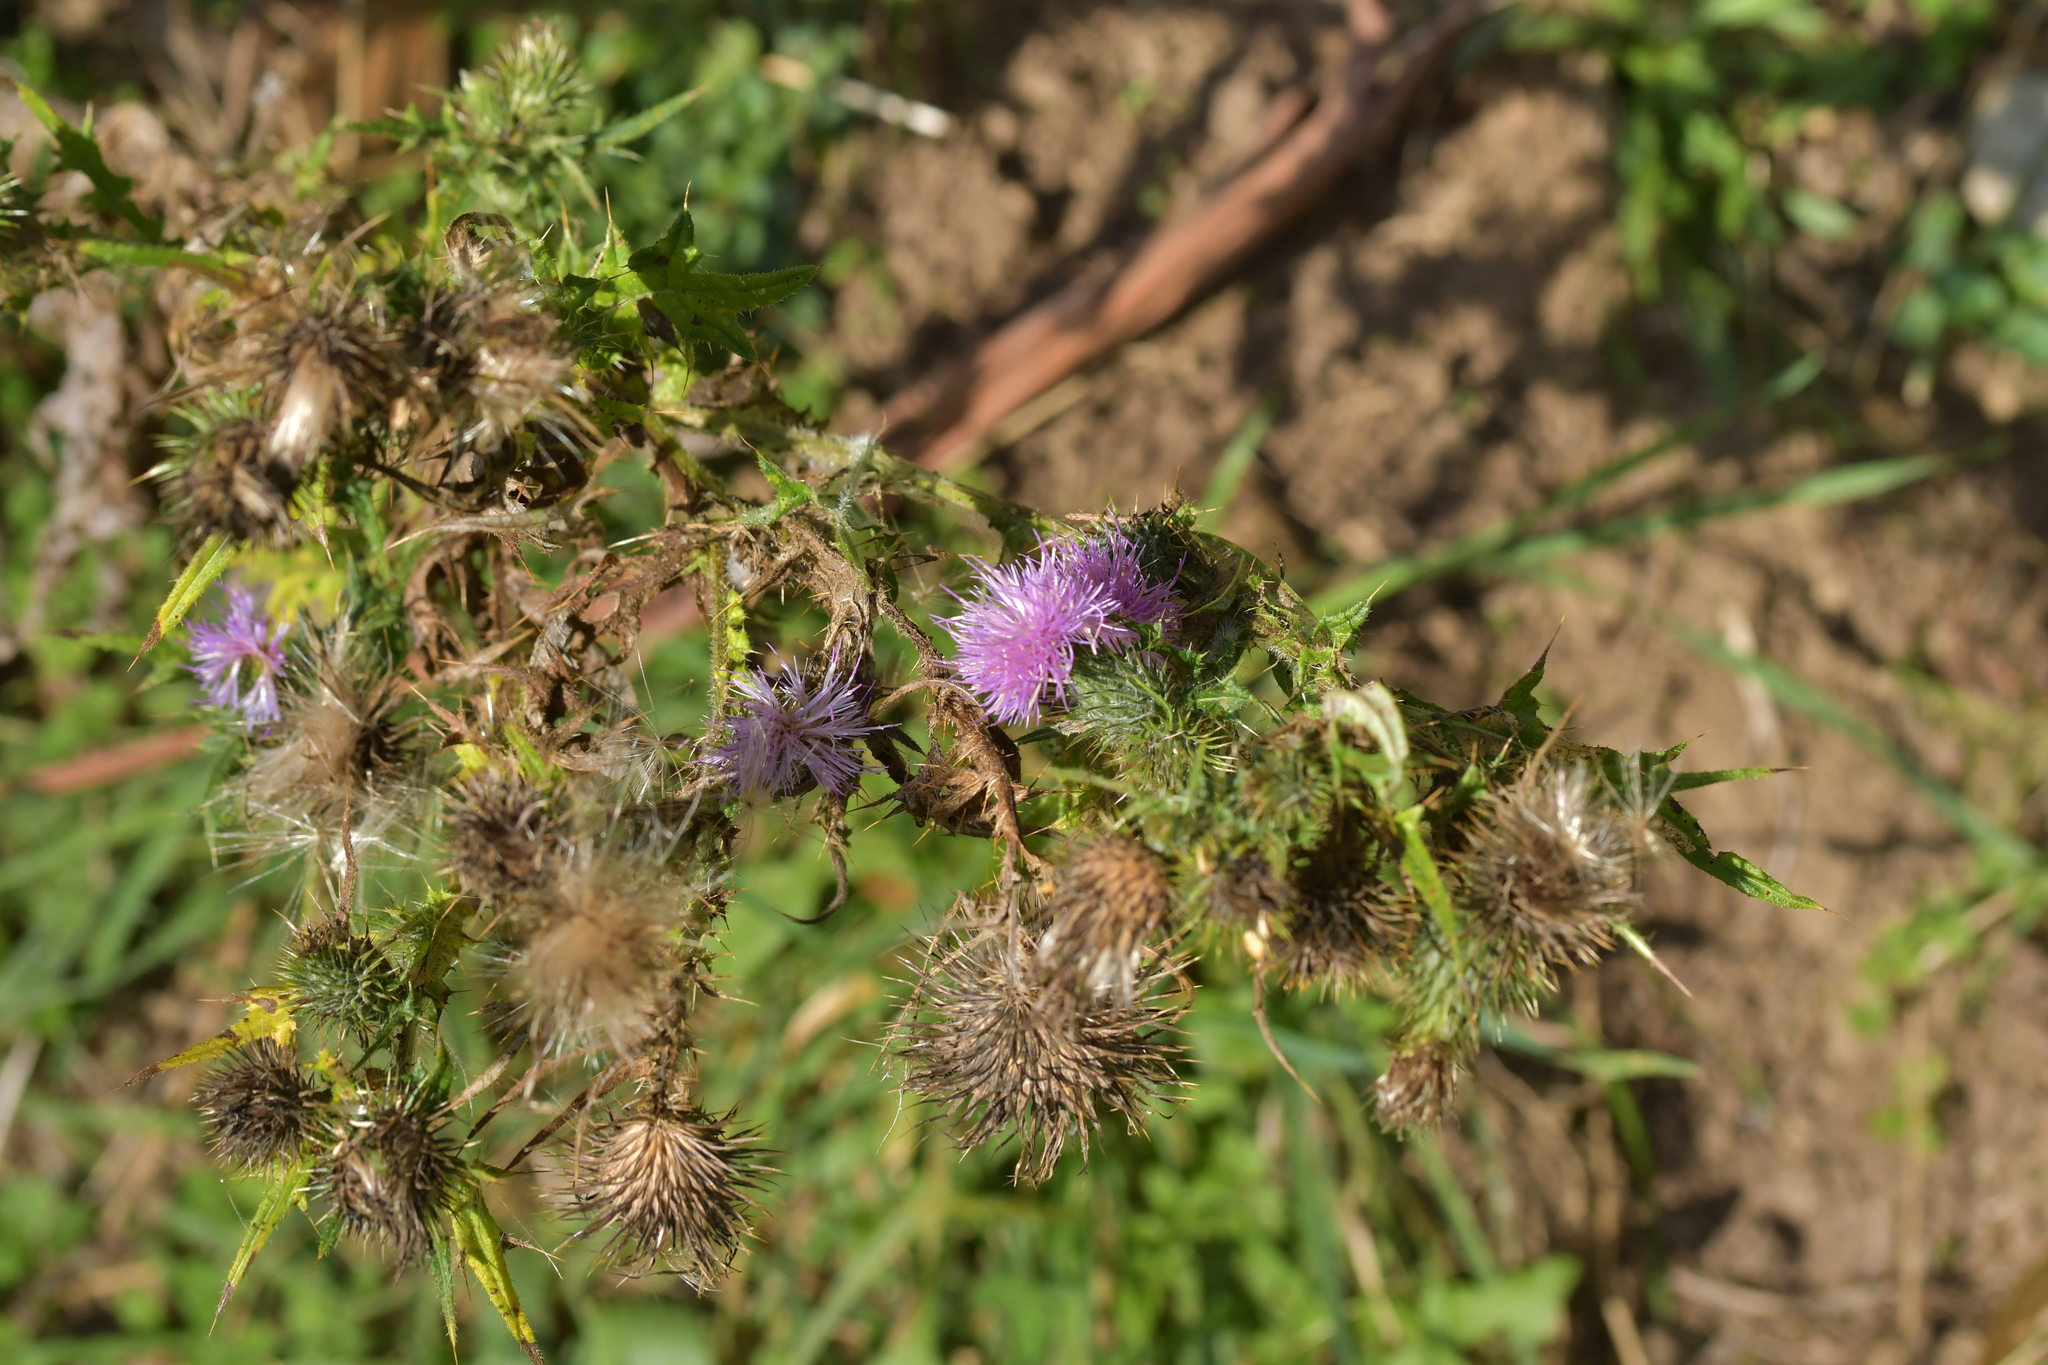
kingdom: Plantae
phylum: Tracheophyta
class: Magnoliopsida
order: Asterales
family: Asteraceae
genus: Cirsium
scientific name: Cirsium vulgare
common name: Bull thistle
